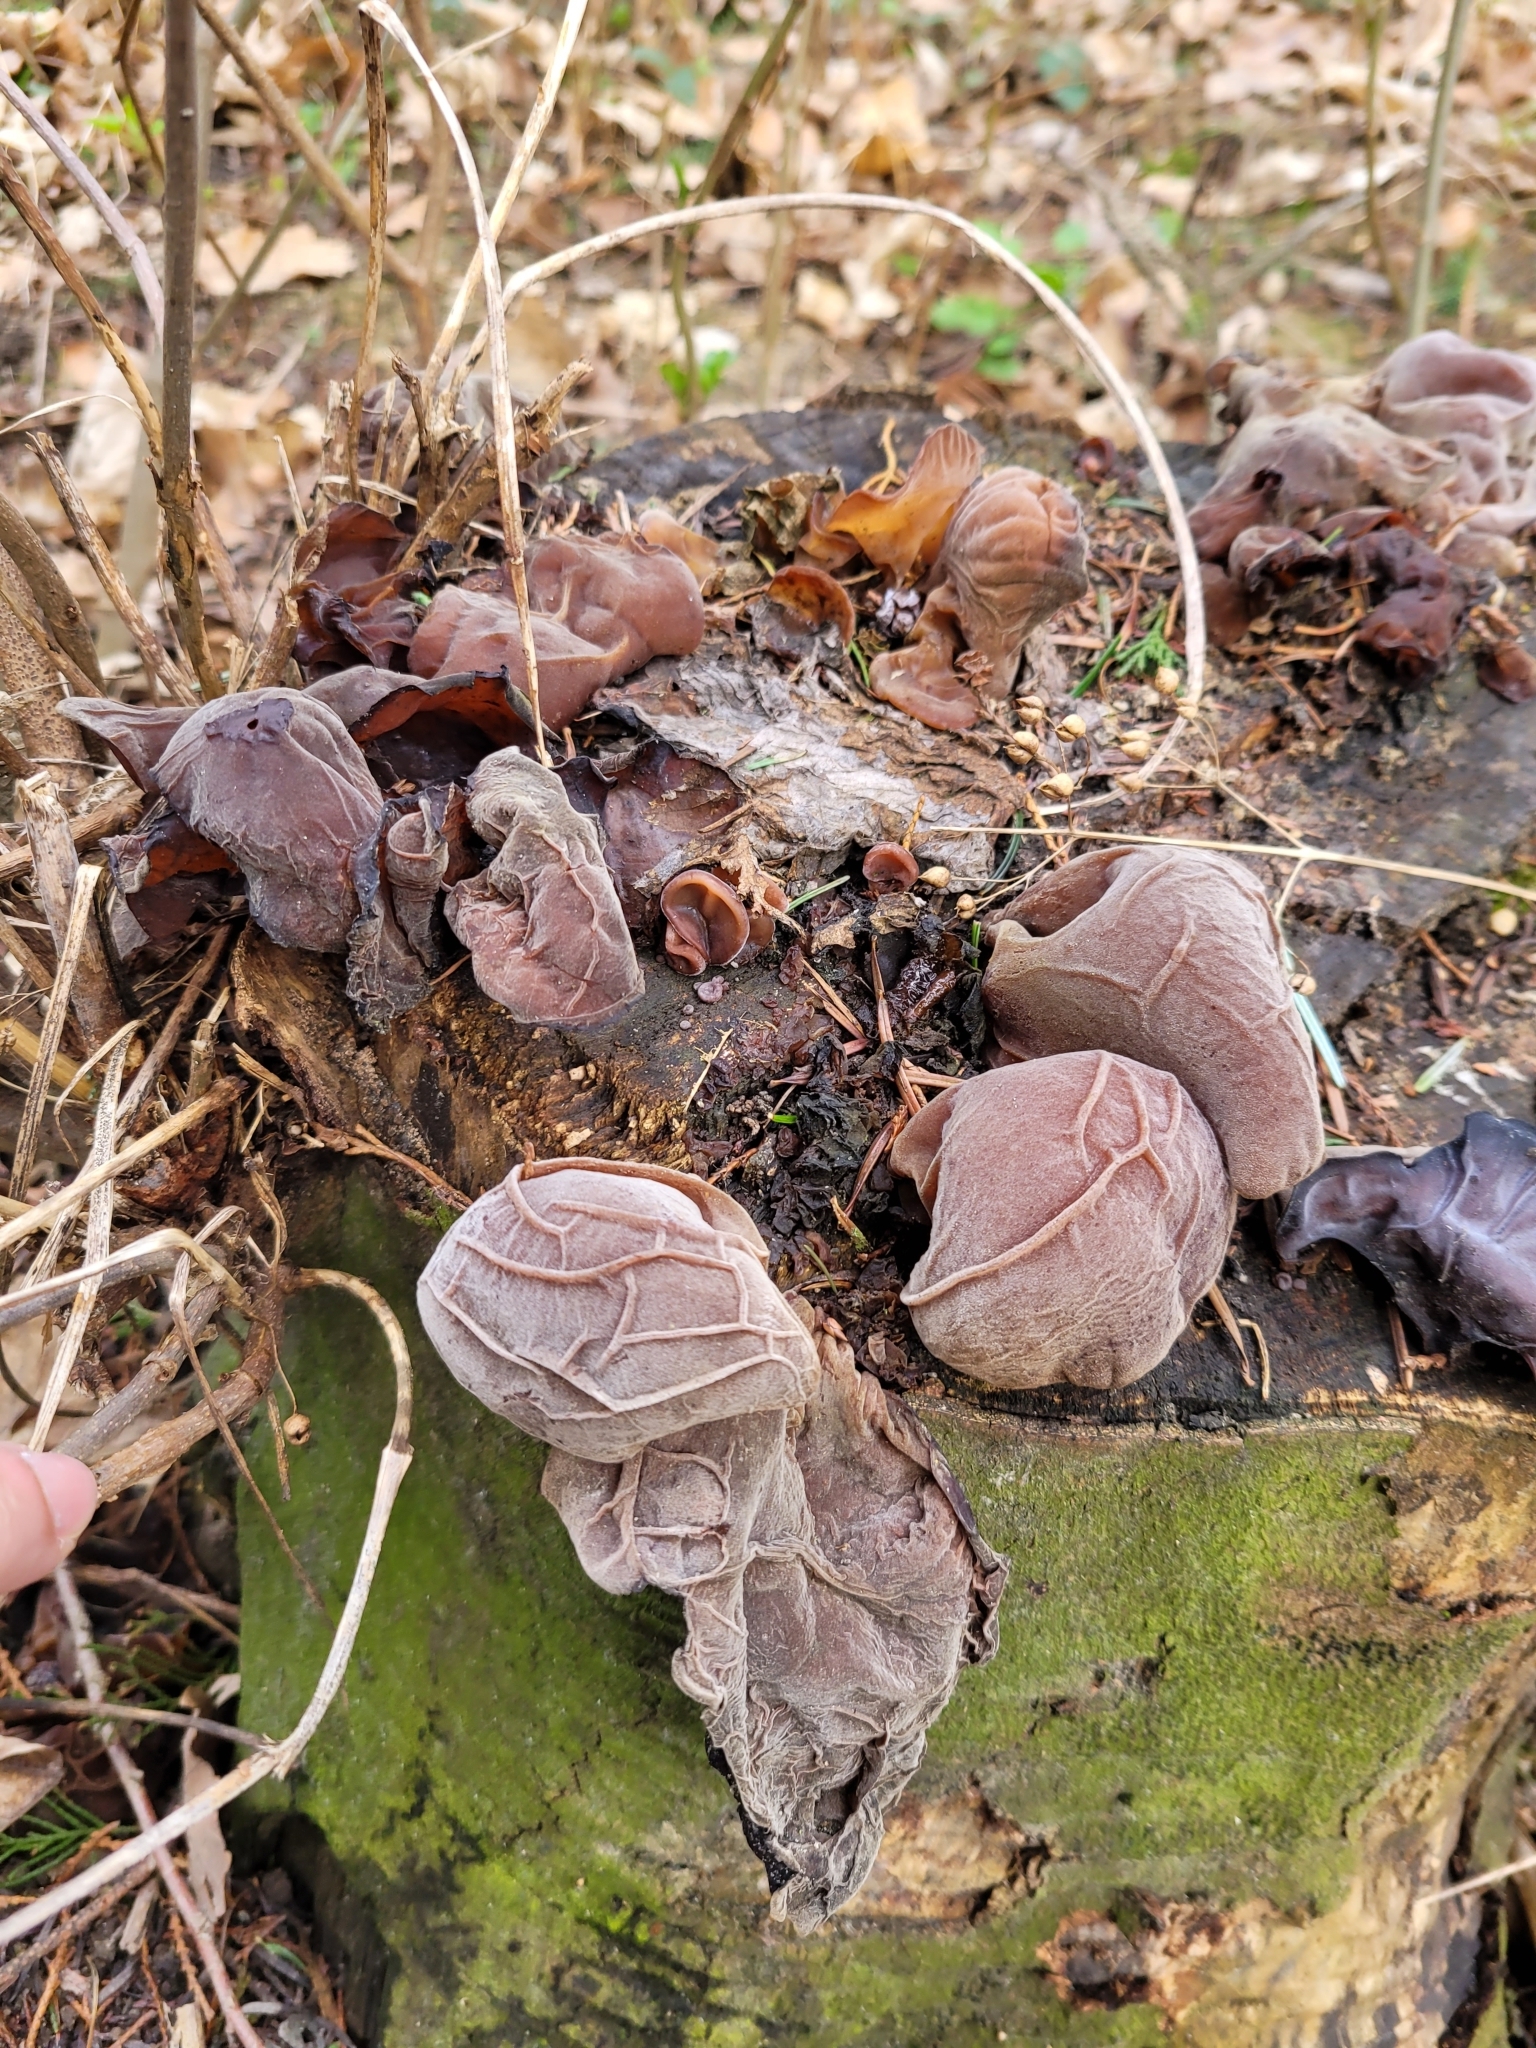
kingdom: Fungi
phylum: Basidiomycota
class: Agaricomycetes
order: Auriculariales
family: Auriculariaceae
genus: Auricularia
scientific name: Auricularia auricula-judae
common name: Jelly ear
